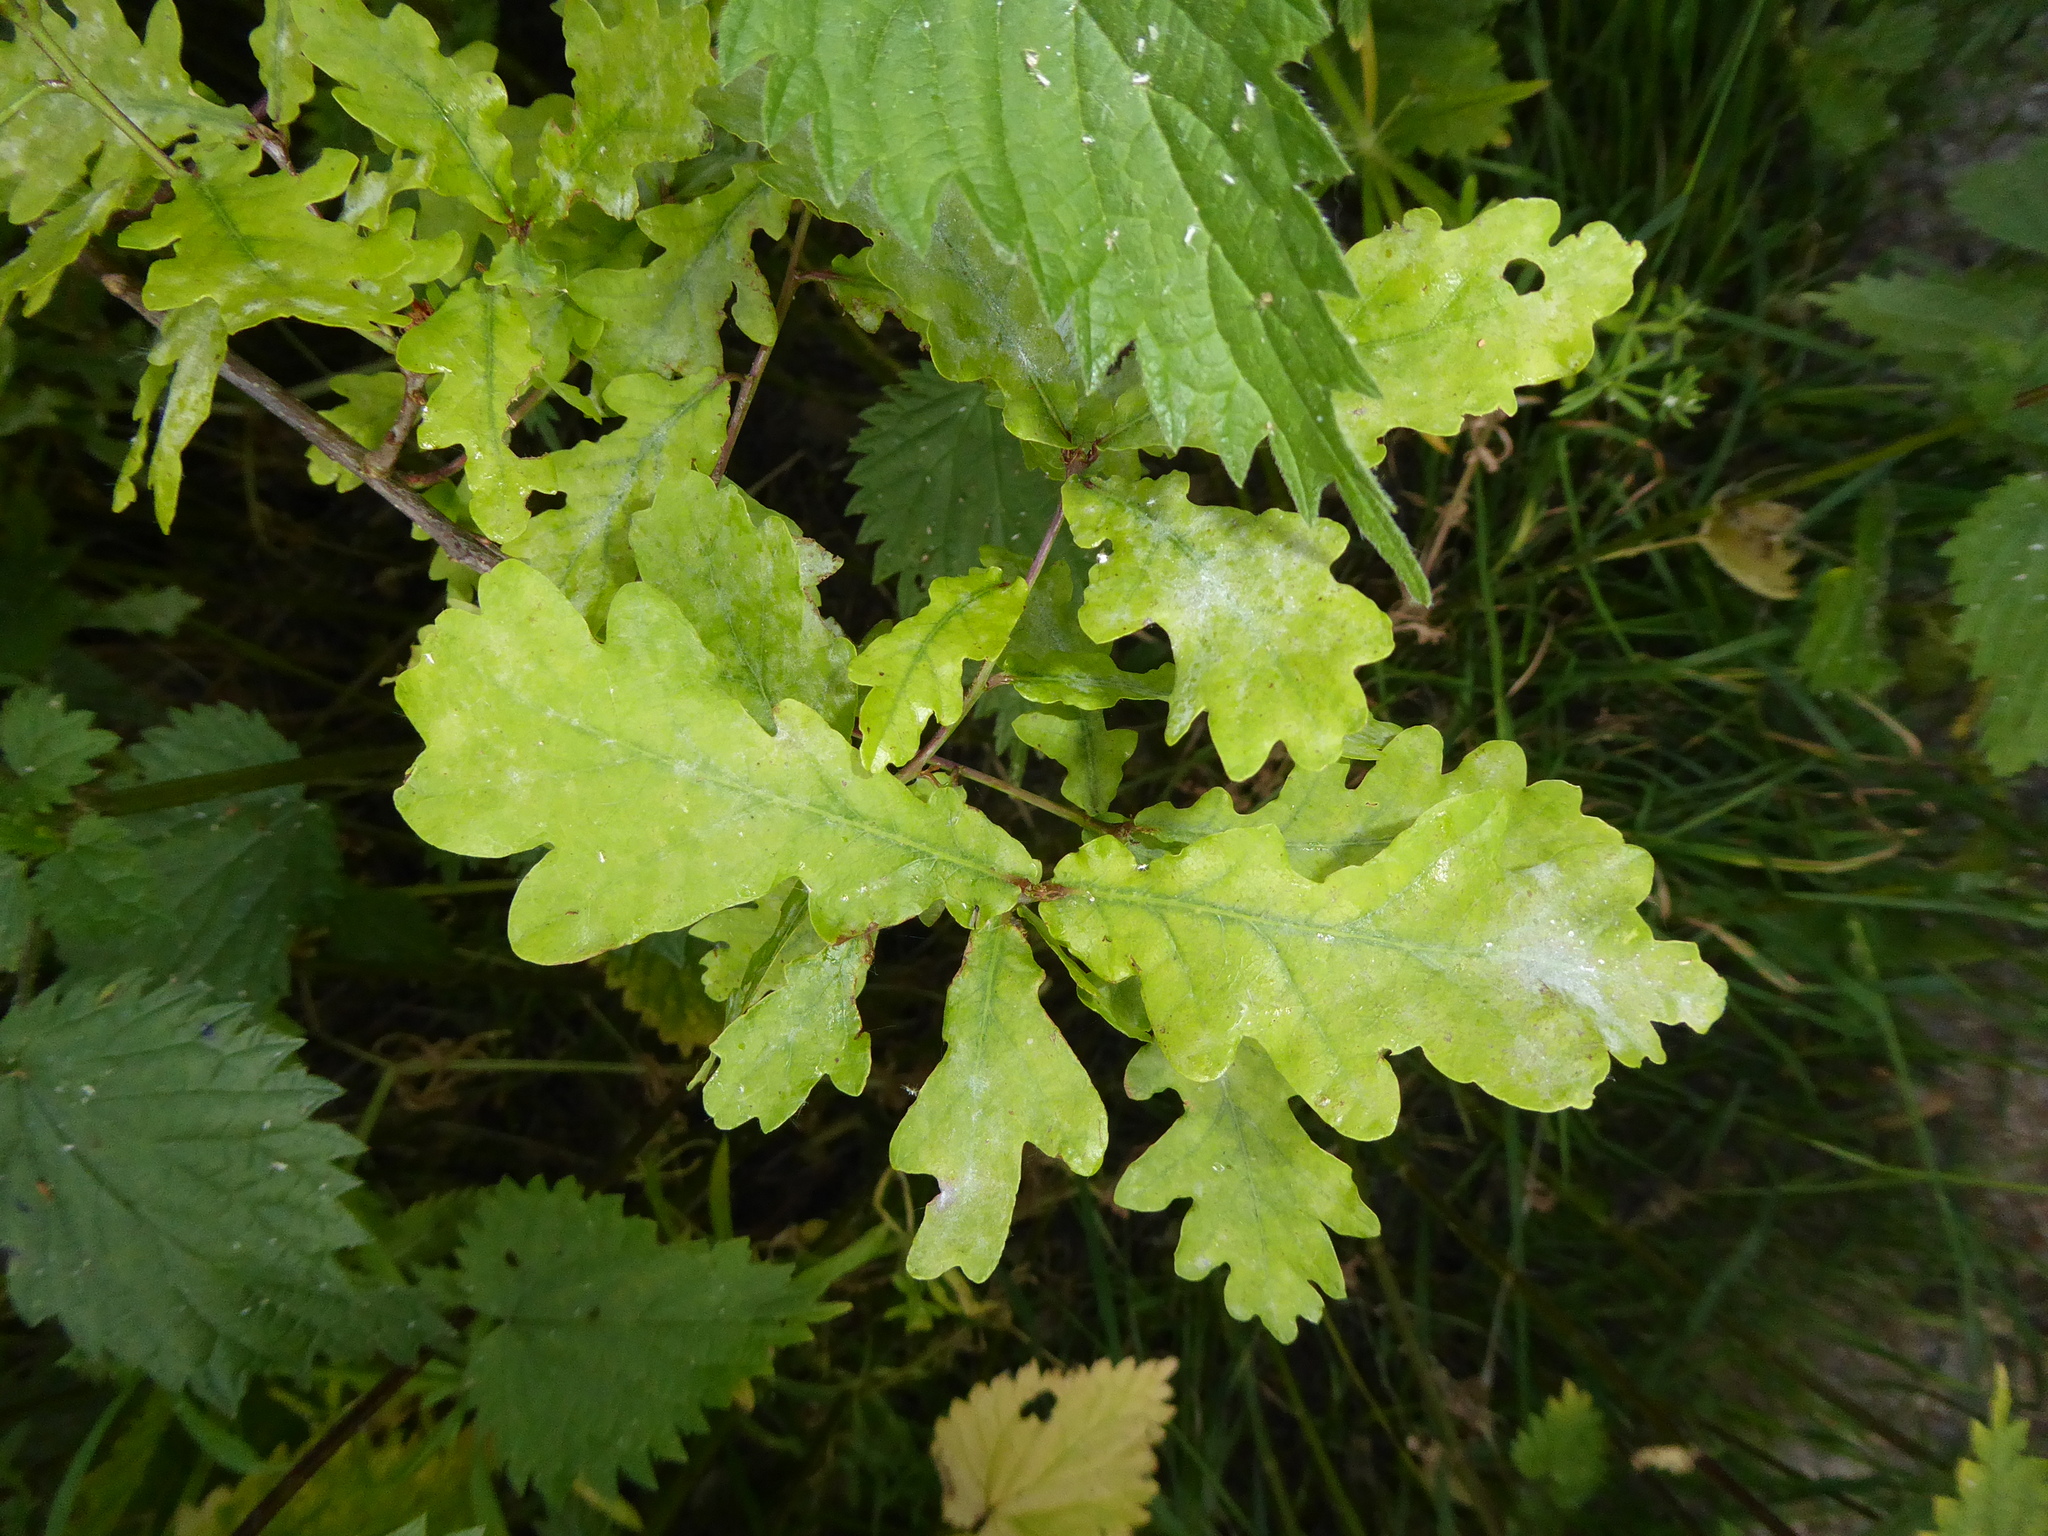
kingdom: Plantae
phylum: Tracheophyta
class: Magnoliopsida
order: Fagales
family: Fagaceae
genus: Quercus
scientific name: Quercus robur
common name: Pedunculate oak
